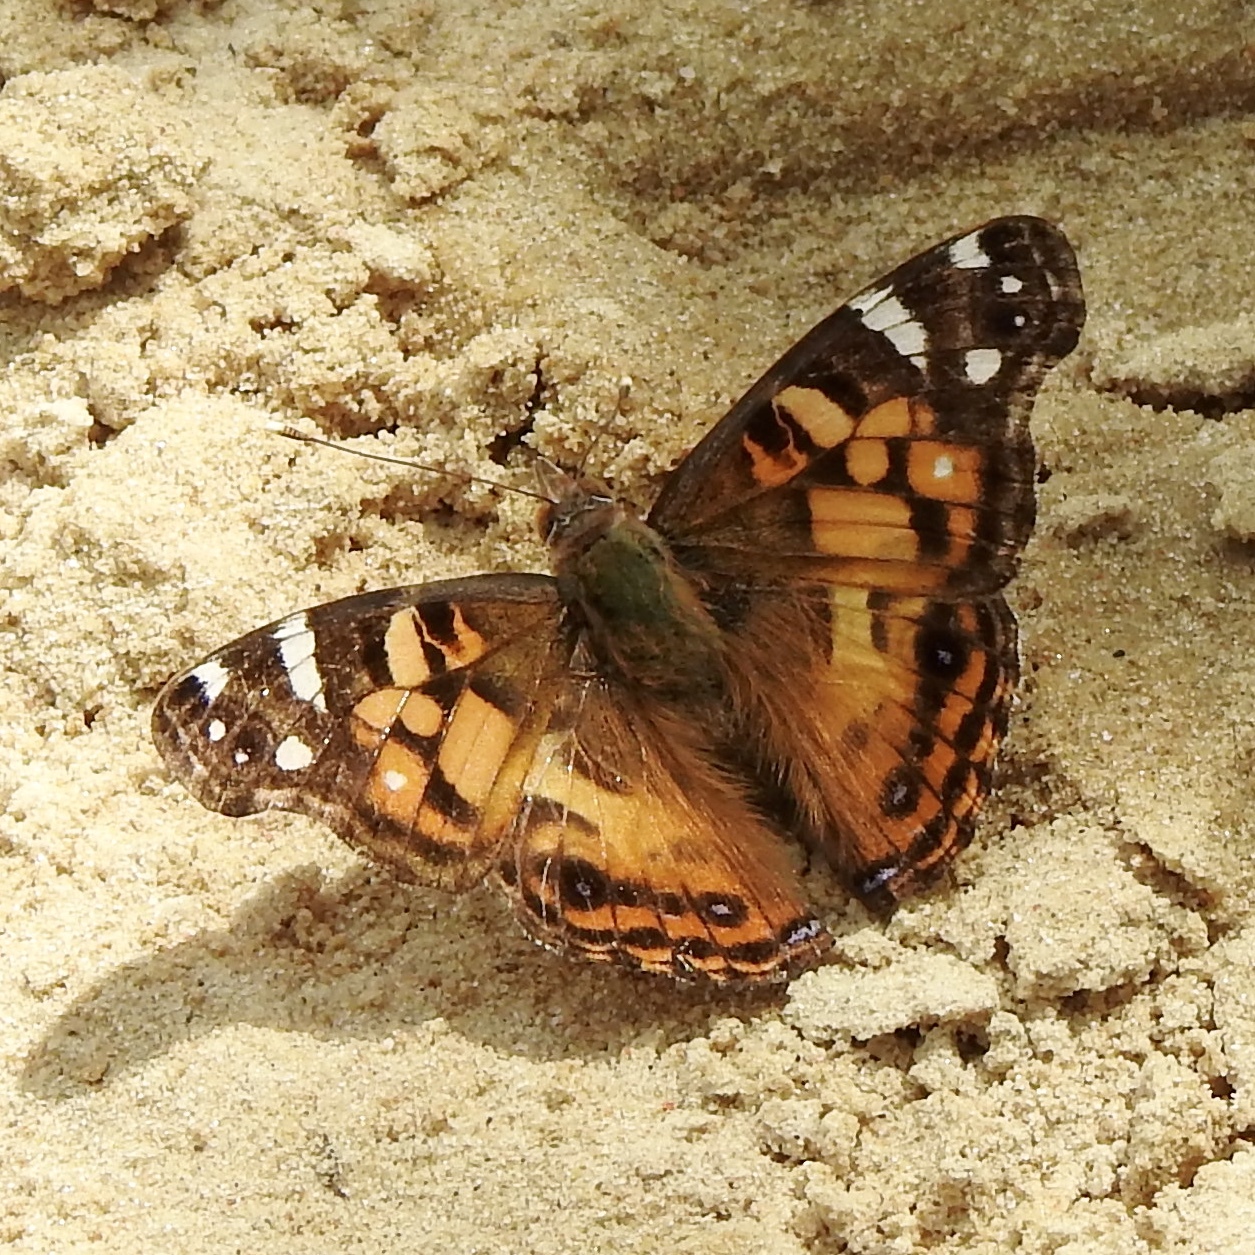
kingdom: Animalia
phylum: Arthropoda
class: Insecta
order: Lepidoptera
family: Nymphalidae
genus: Vanessa
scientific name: Vanessa virginiensis
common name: American lady
